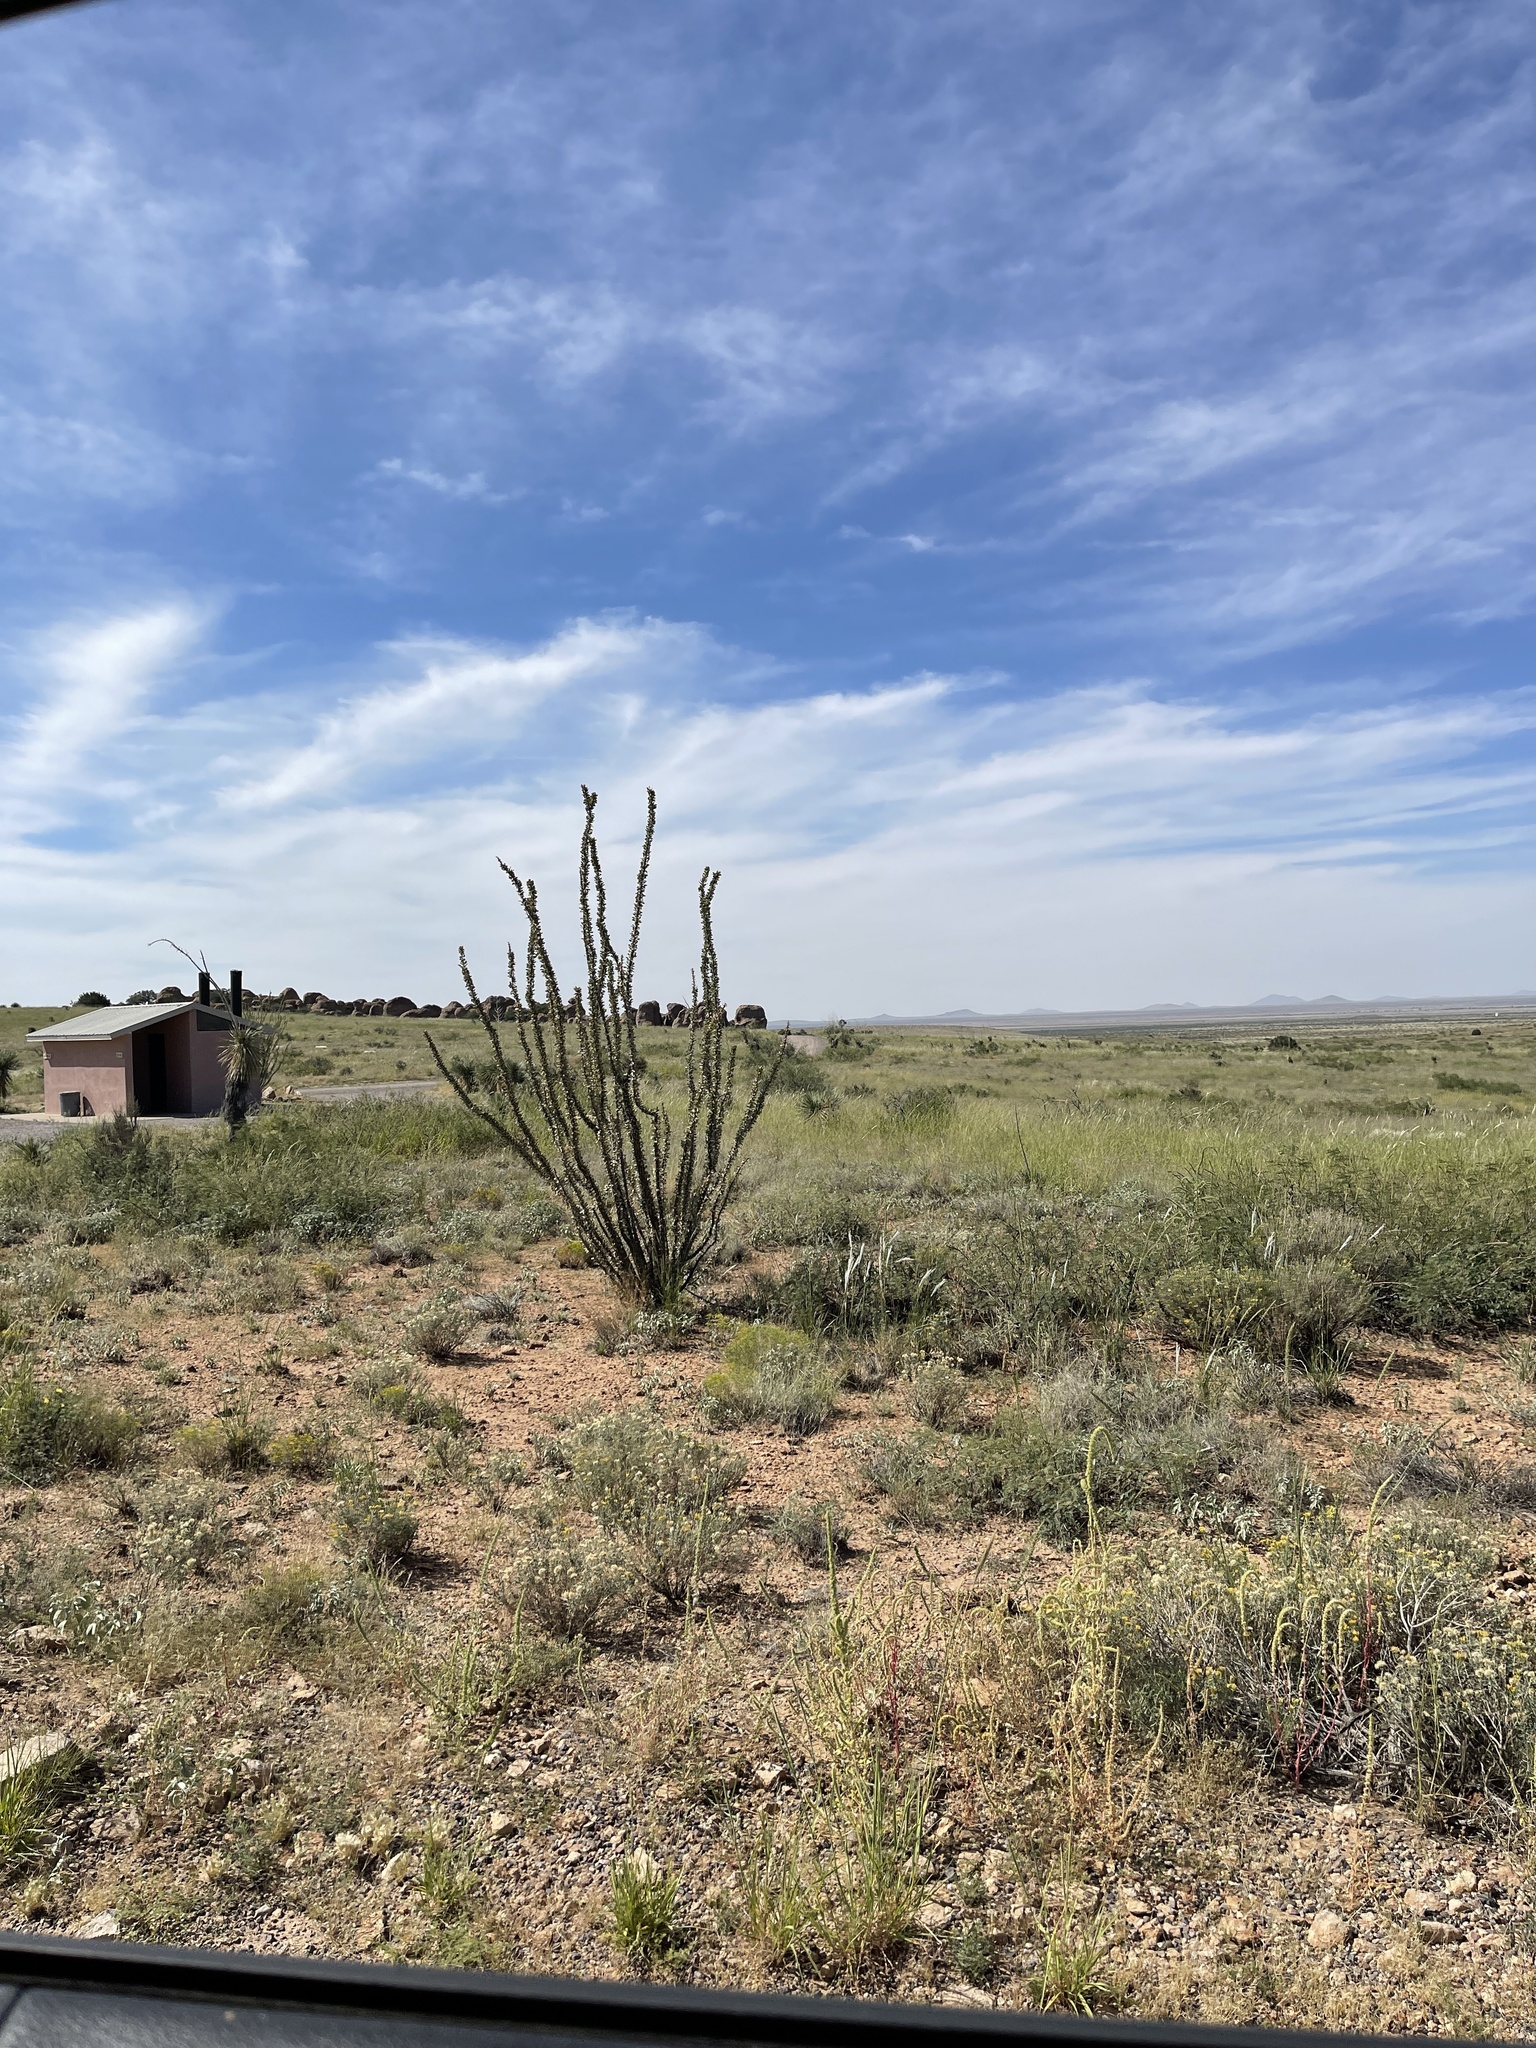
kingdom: Plantae
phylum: Tracheophyta
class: Magnoliopsida
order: Ericales
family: Fouquieriaceae
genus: Fouquieria
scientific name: Fouquieria splendens
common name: Vine-cactus
